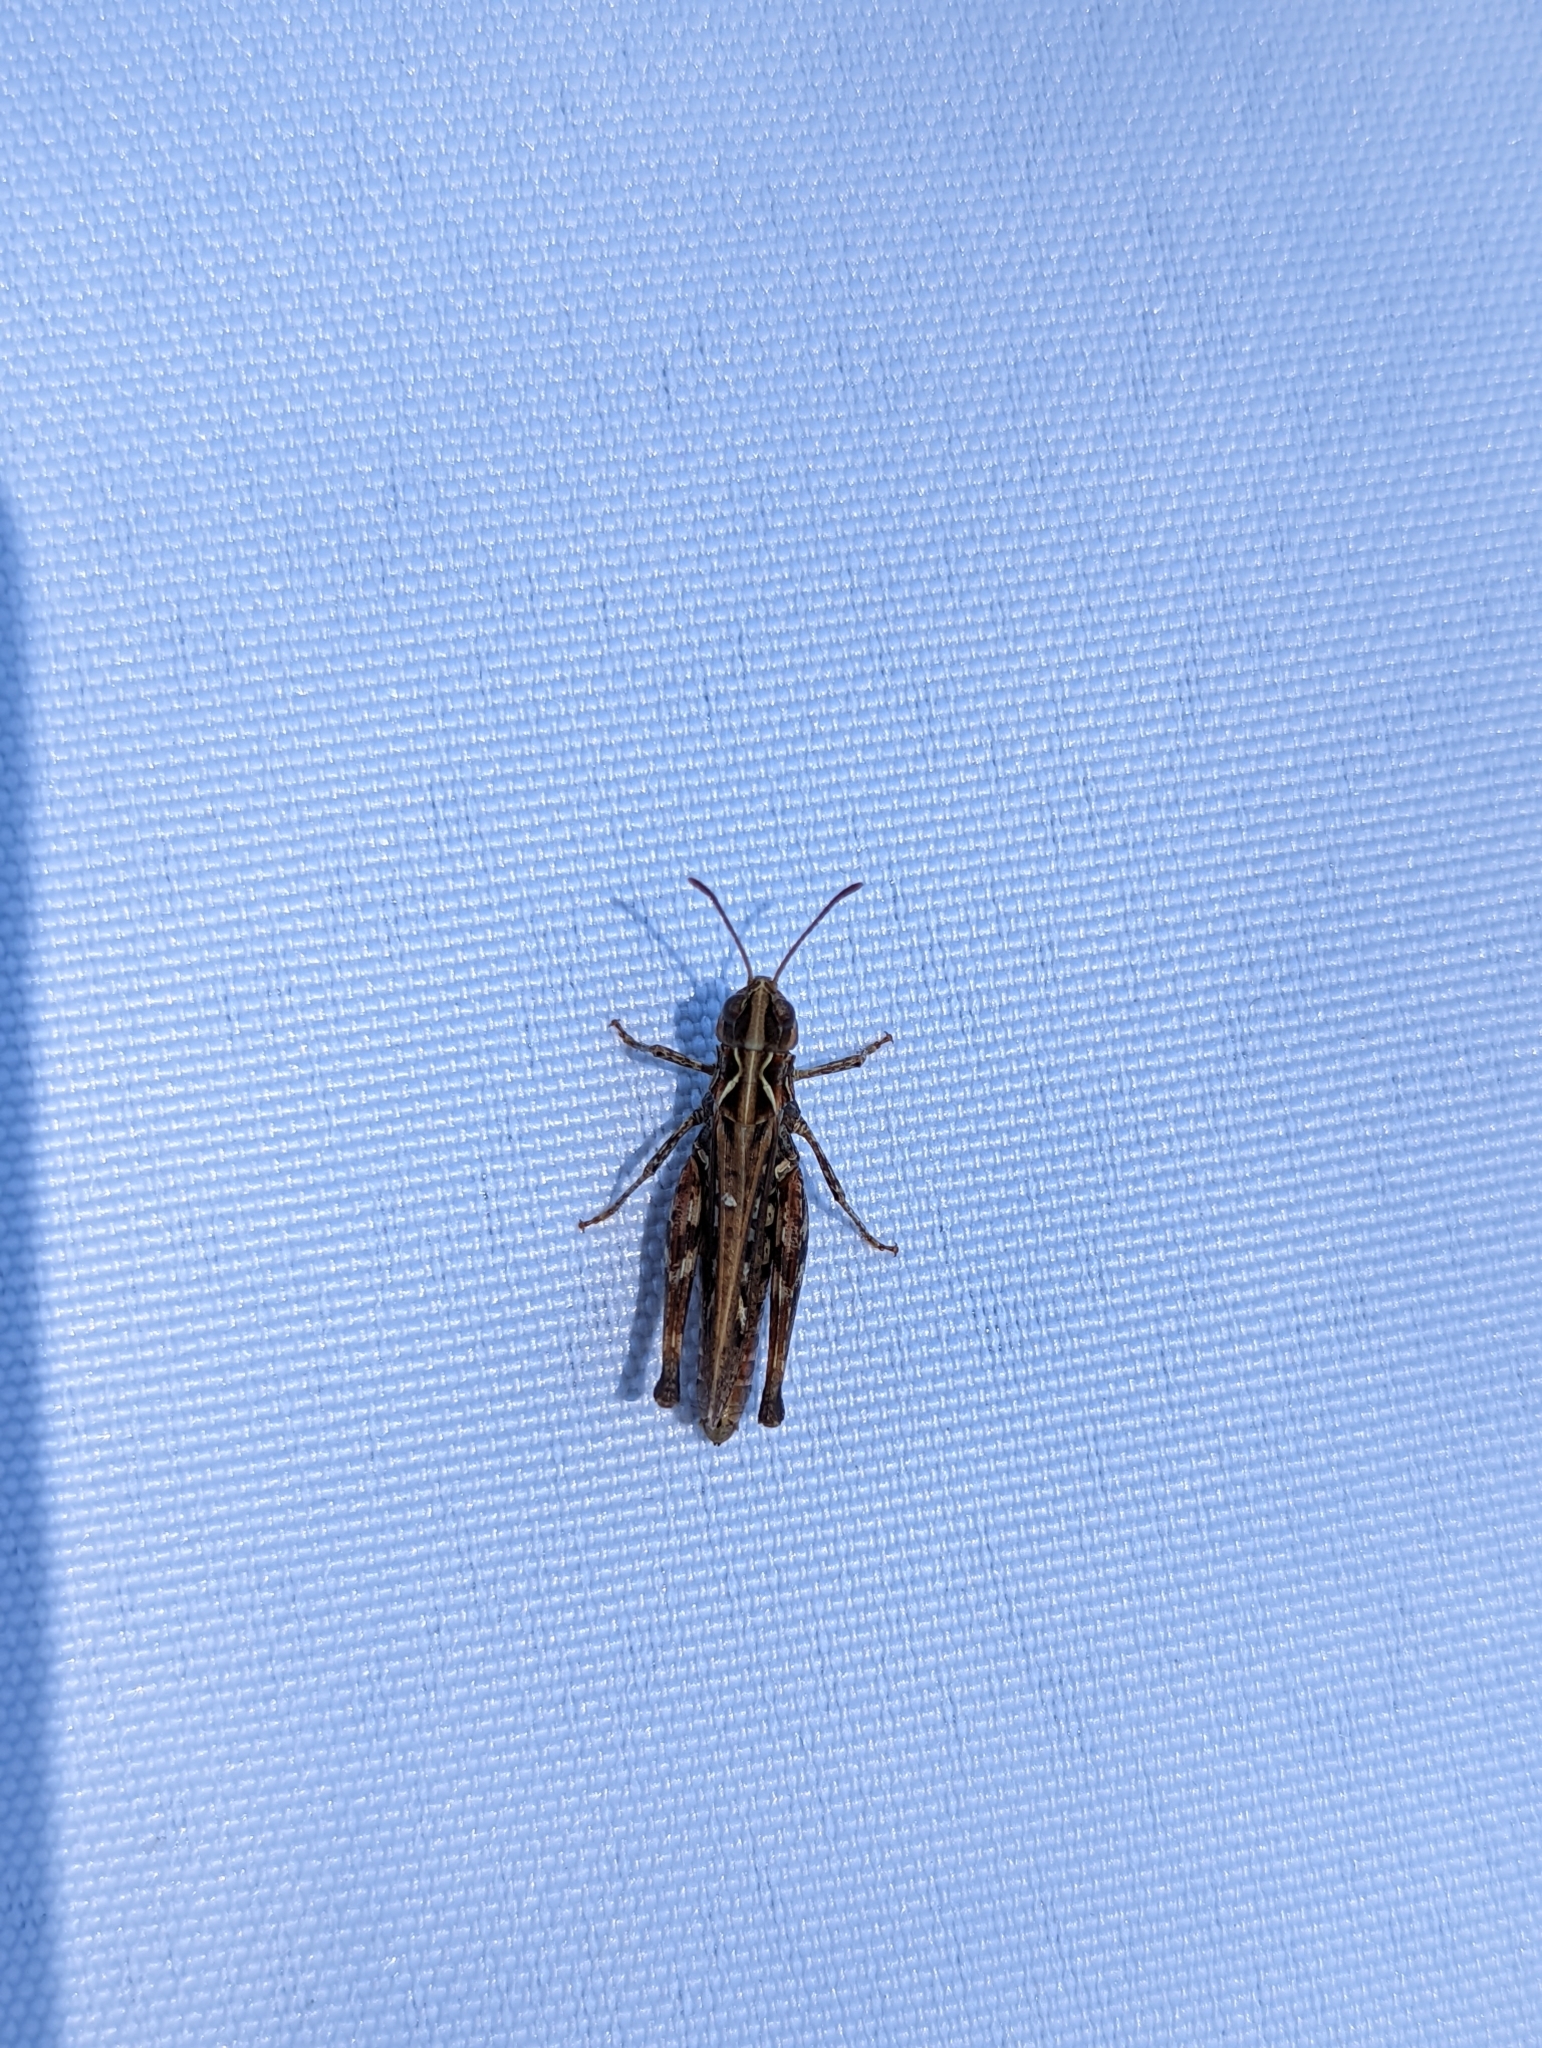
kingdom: Animalia
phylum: Arthropoda
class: Insecta
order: Orthoptera
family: Acrididae
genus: Myrmeleotettix
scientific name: Myrmeleotettix maculatus
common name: Mottled grasshopper
